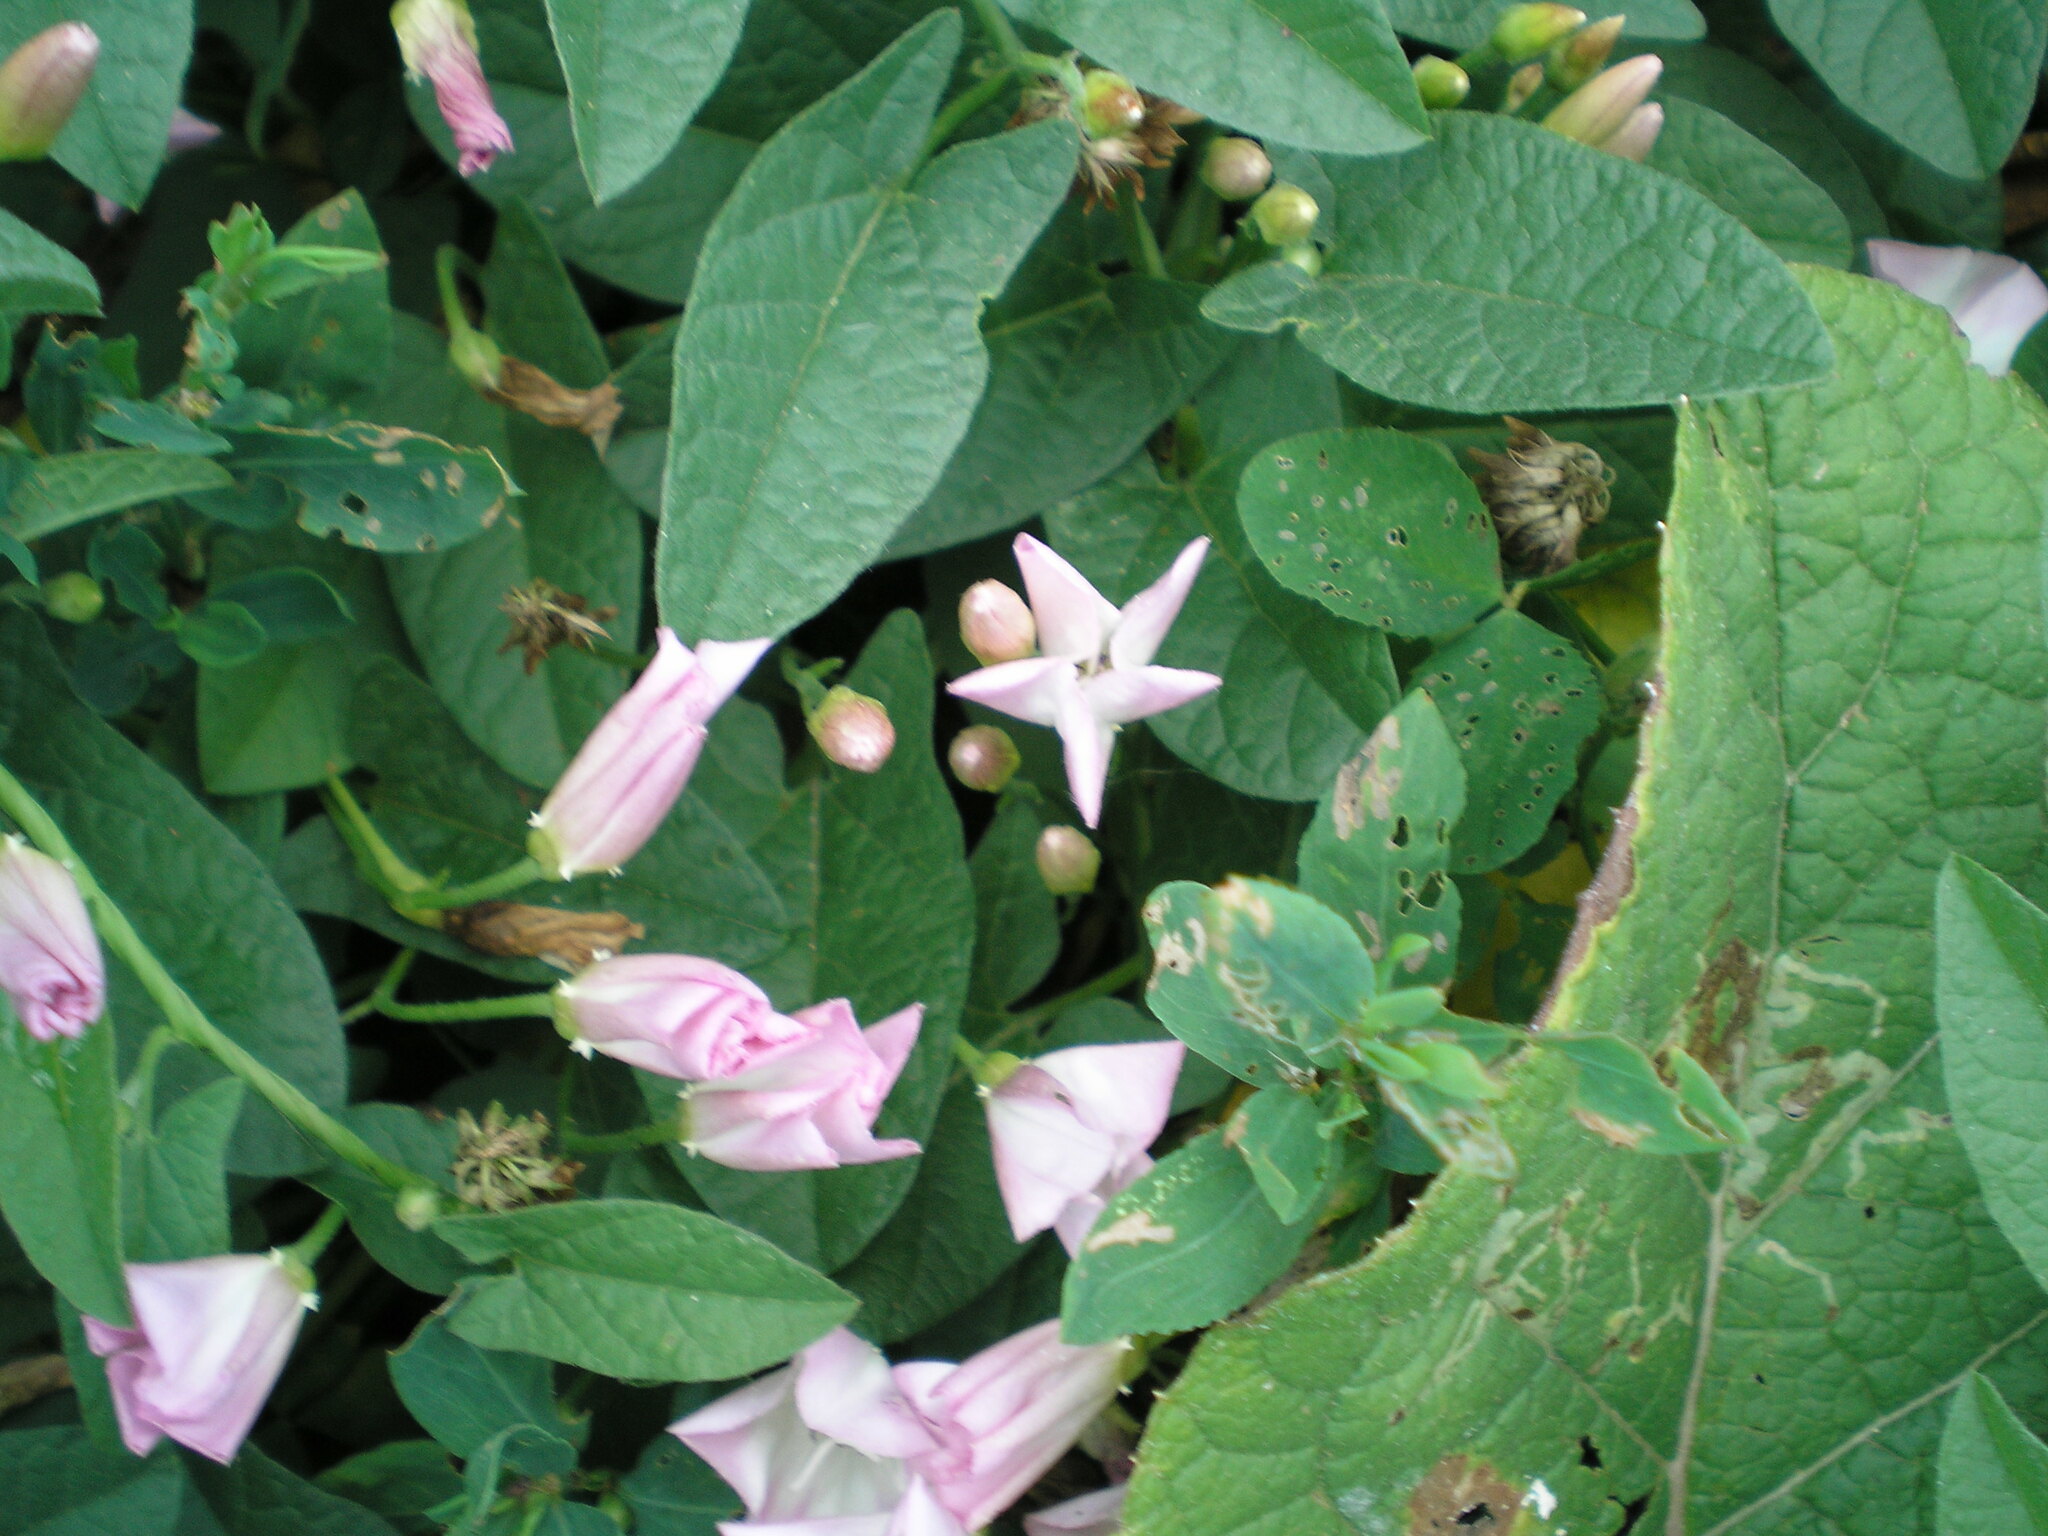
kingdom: Plantae
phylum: Tracheophyta
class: Magnoliopsida
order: Solanales
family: Convolvulaceae
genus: Convolvulus
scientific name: Convolvulus arvensis
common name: Field bindweed
